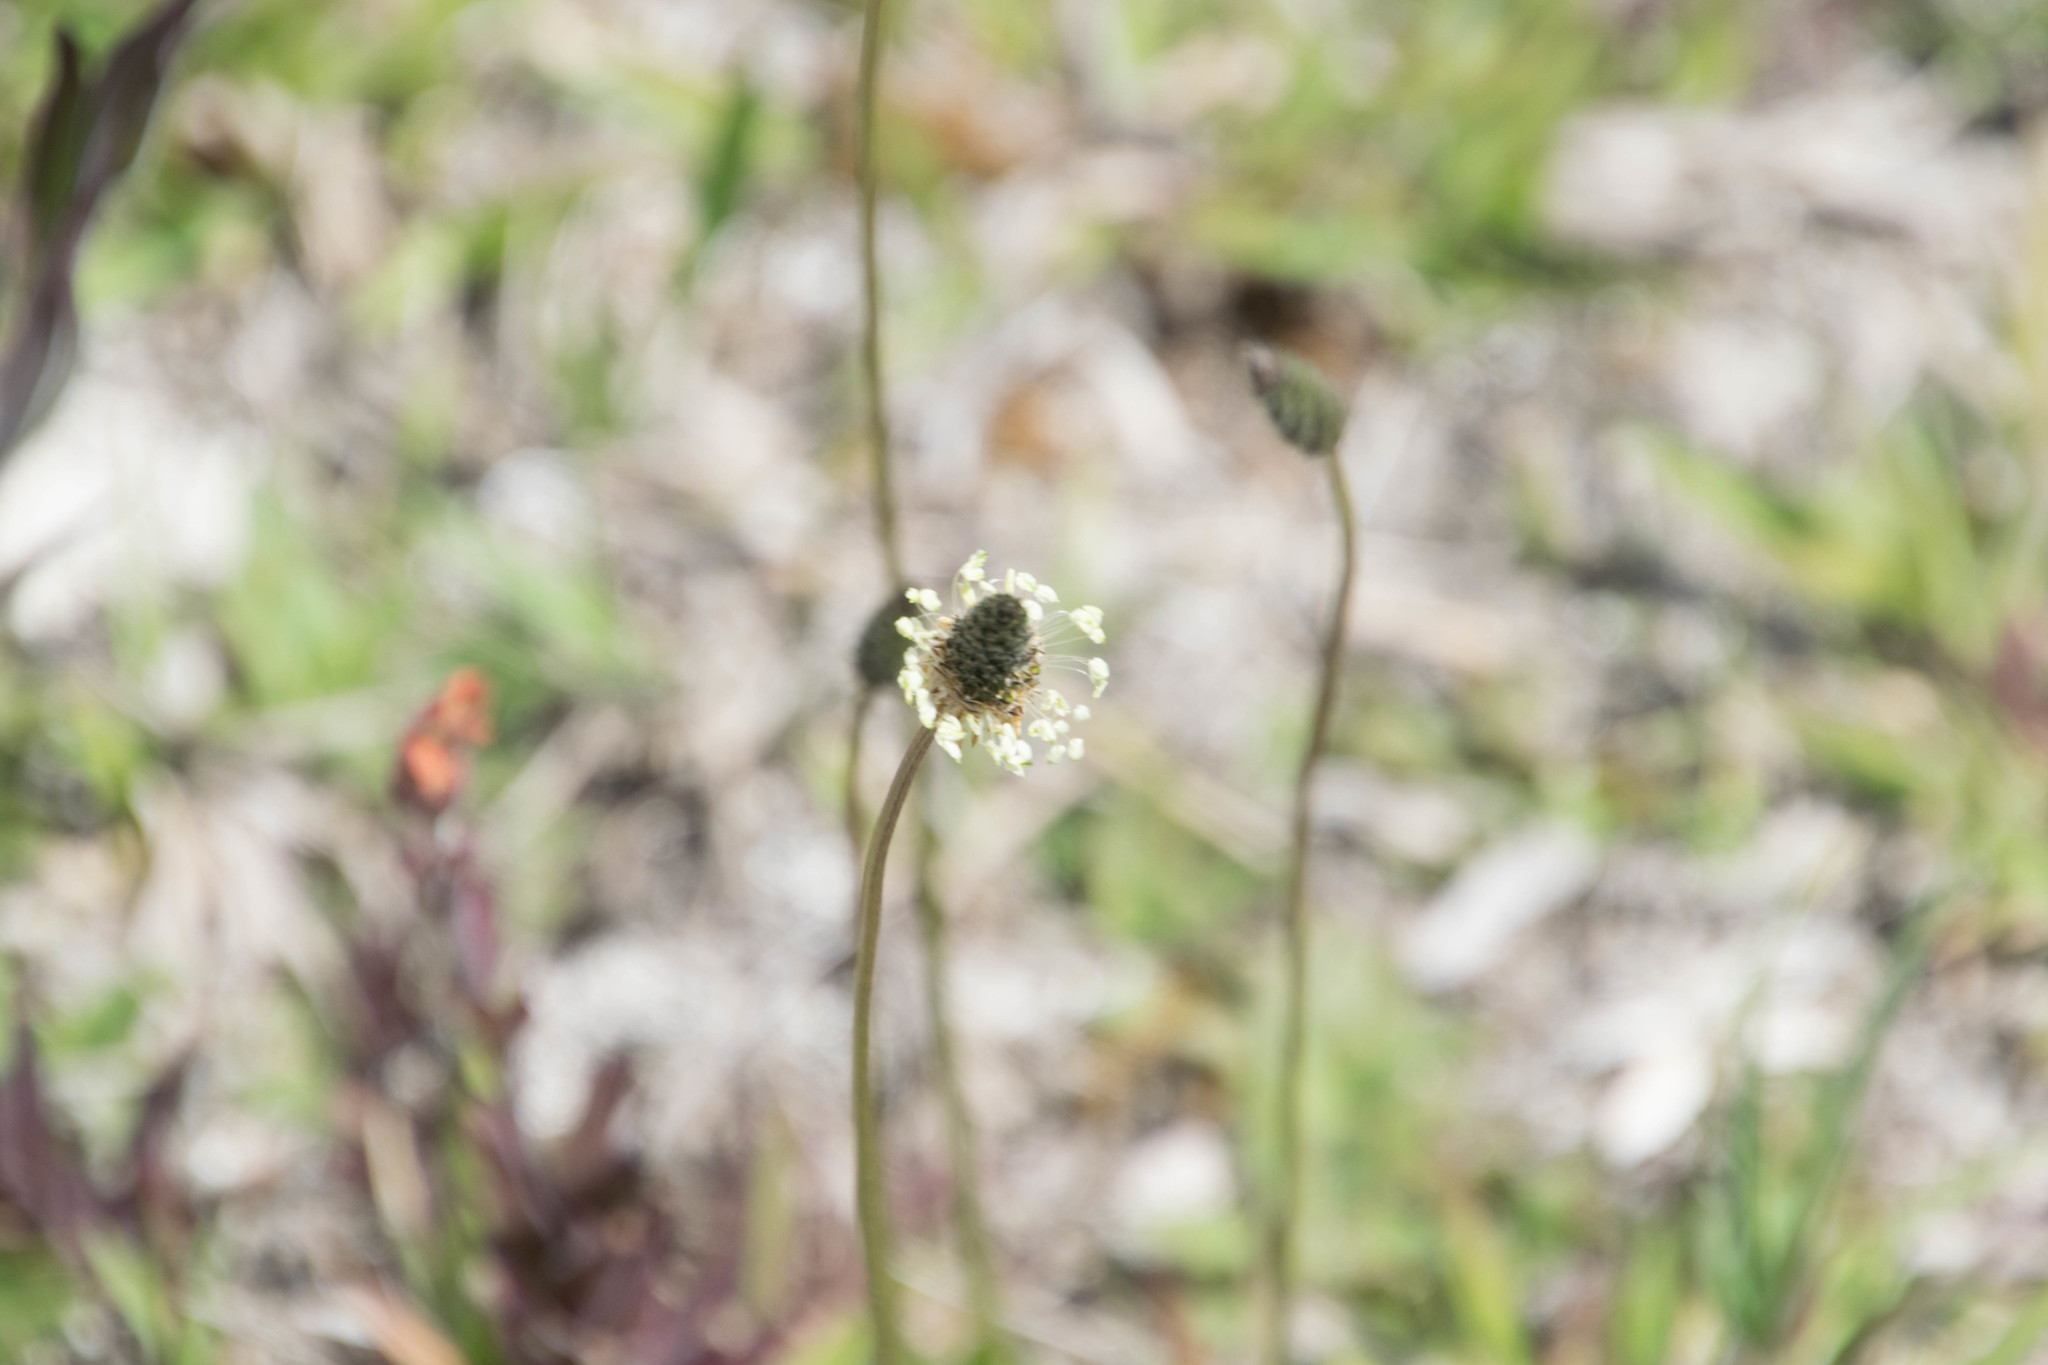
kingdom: Plantae
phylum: Tracheophyta
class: Magnoliopsida
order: Lamiales
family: Plantaginaceae
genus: Plantago
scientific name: Plantago lanceolata
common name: Ribwort plantain
